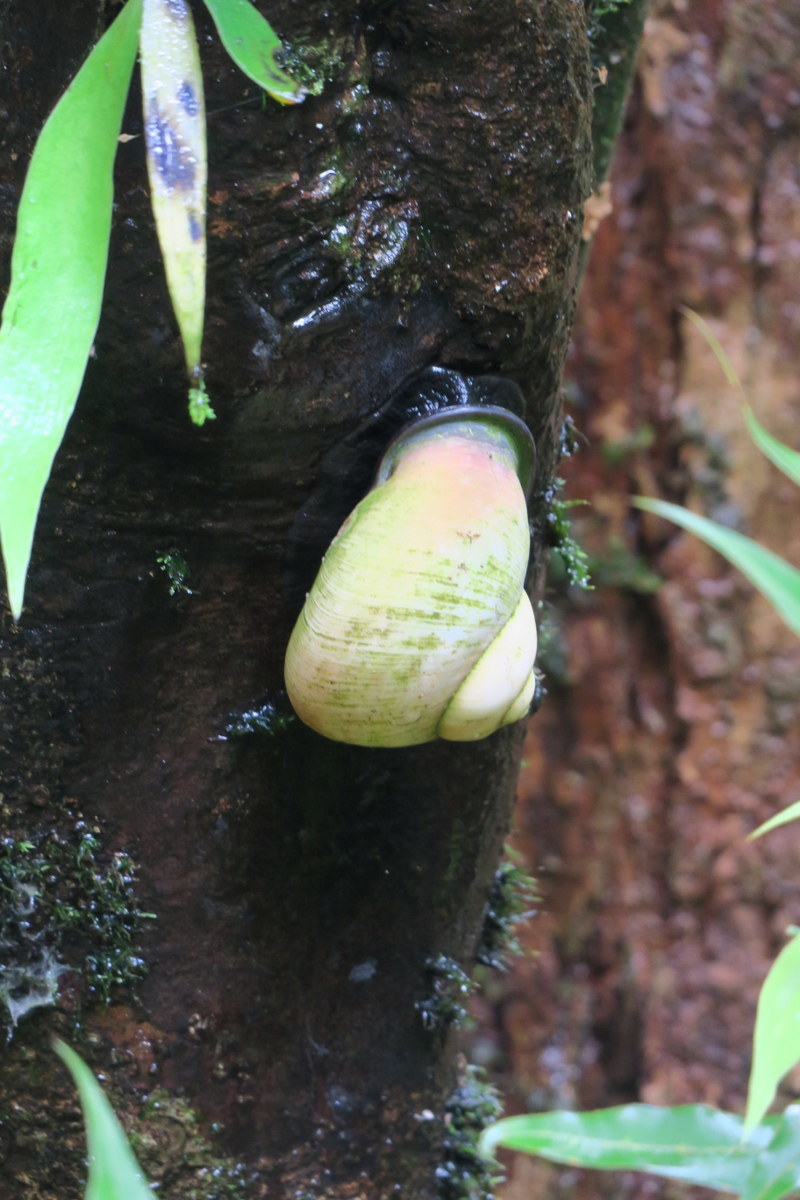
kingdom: Animalia
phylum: Mollusca
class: Gastropoda
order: Stylommatophora
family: Acavidae
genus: Acavus
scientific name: Acavus superbus
